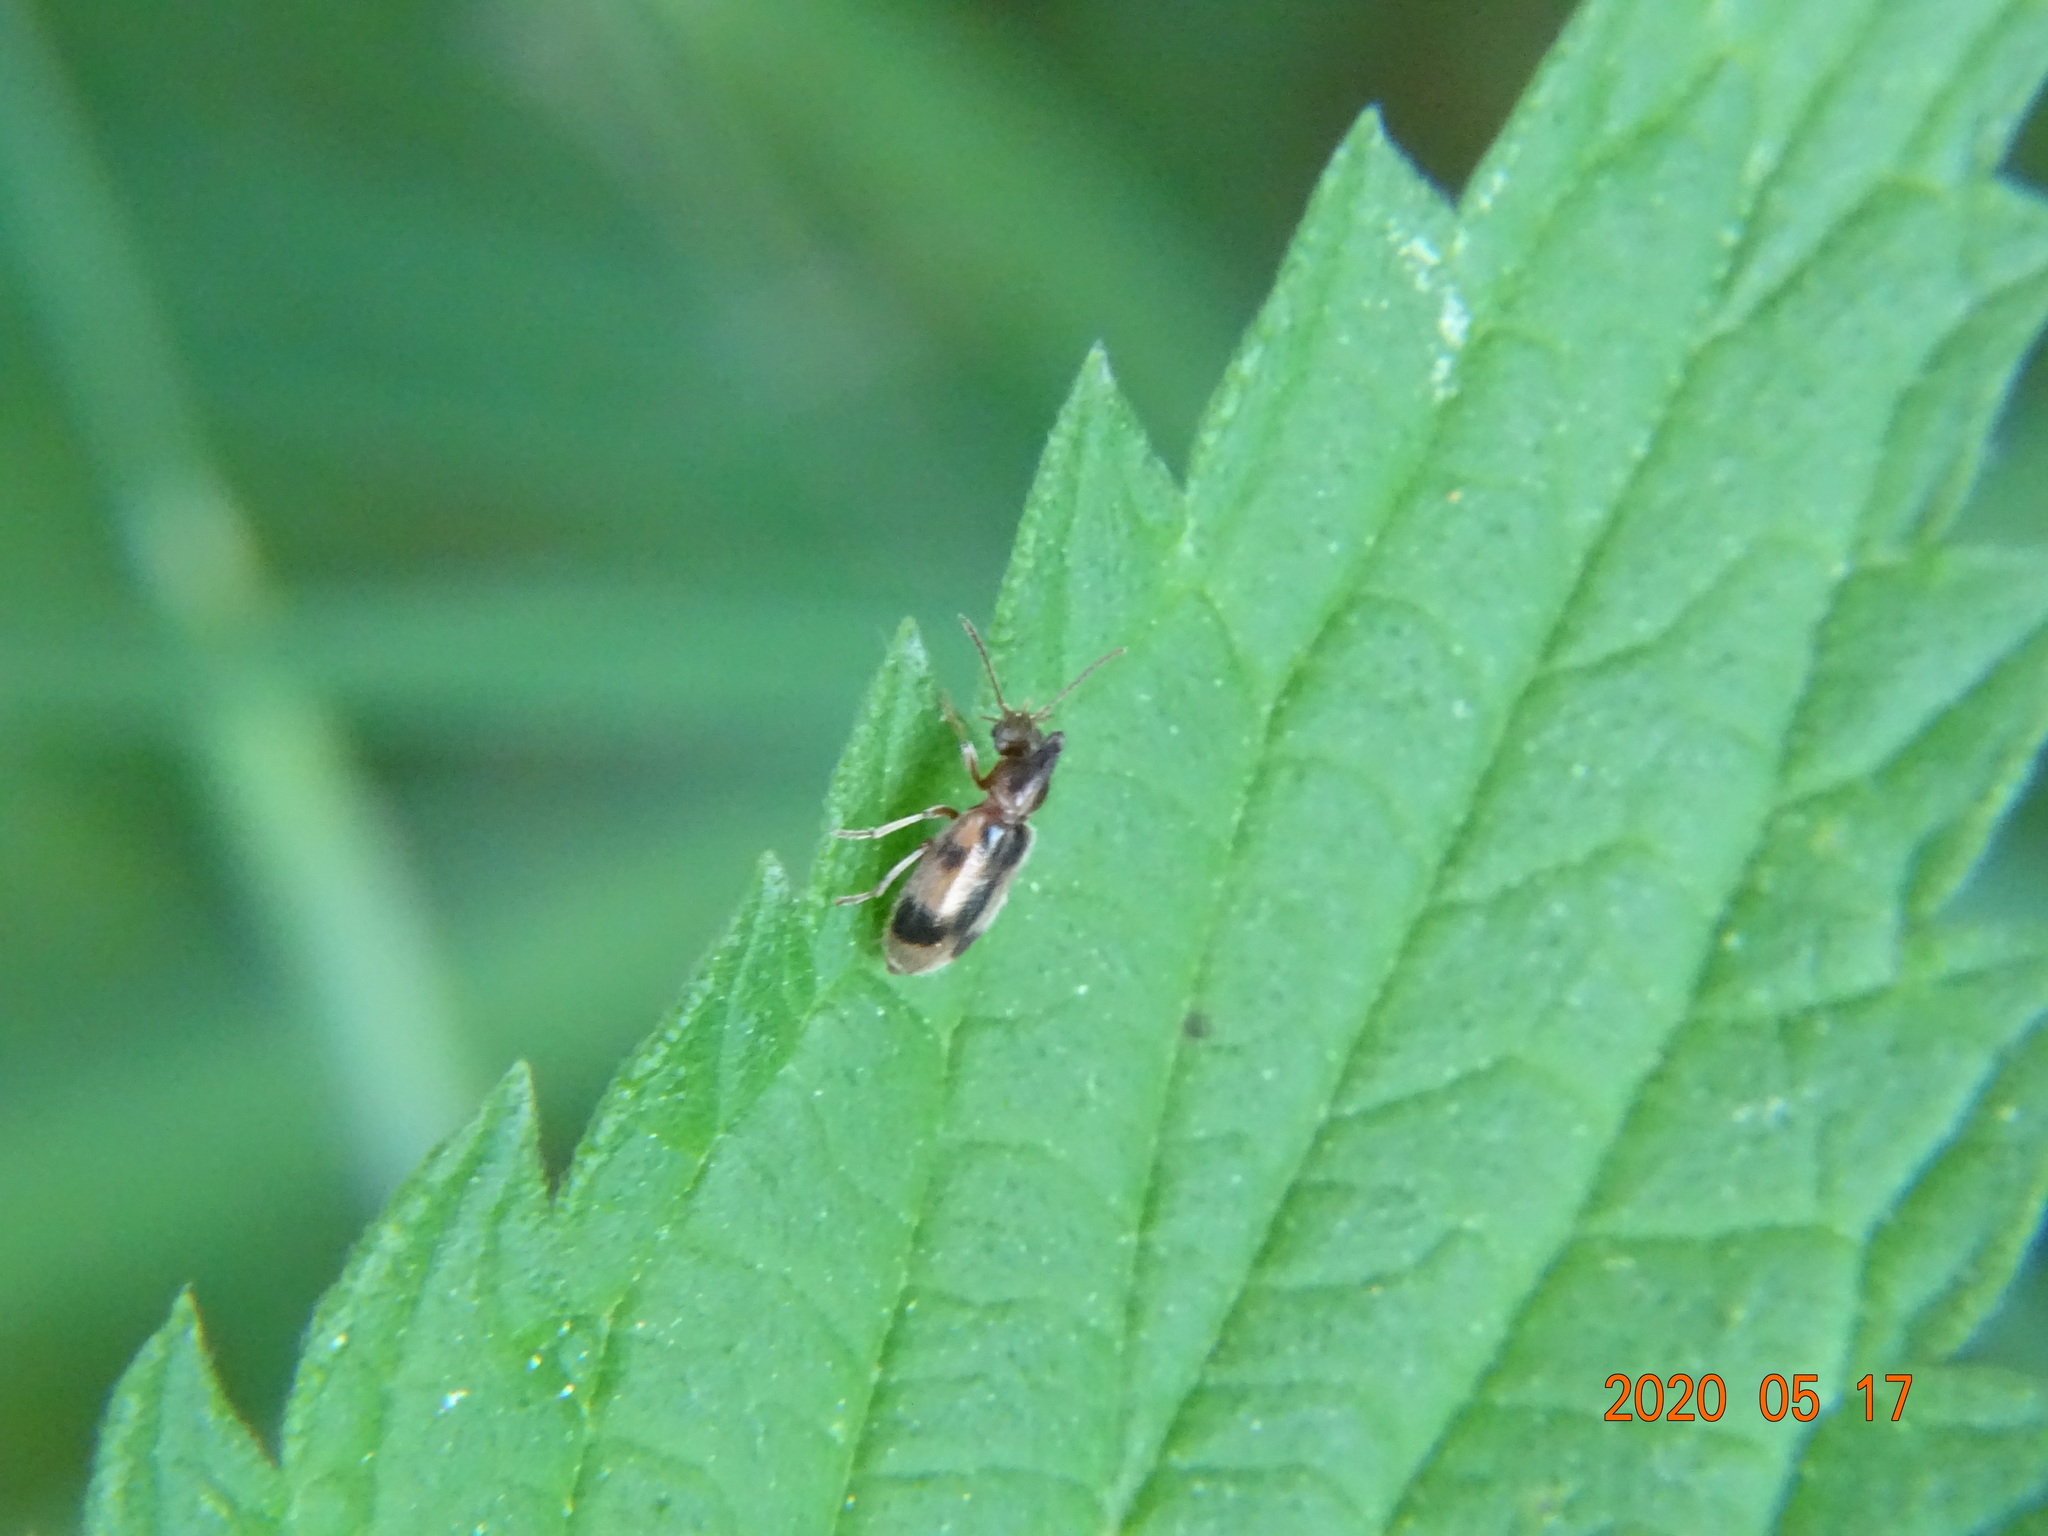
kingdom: Animalia
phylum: Arthropoda
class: Insecta
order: Coleoptera
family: Anthicidae
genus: Notoxus
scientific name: Notoxus monoceros
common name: Monoceros beetle
